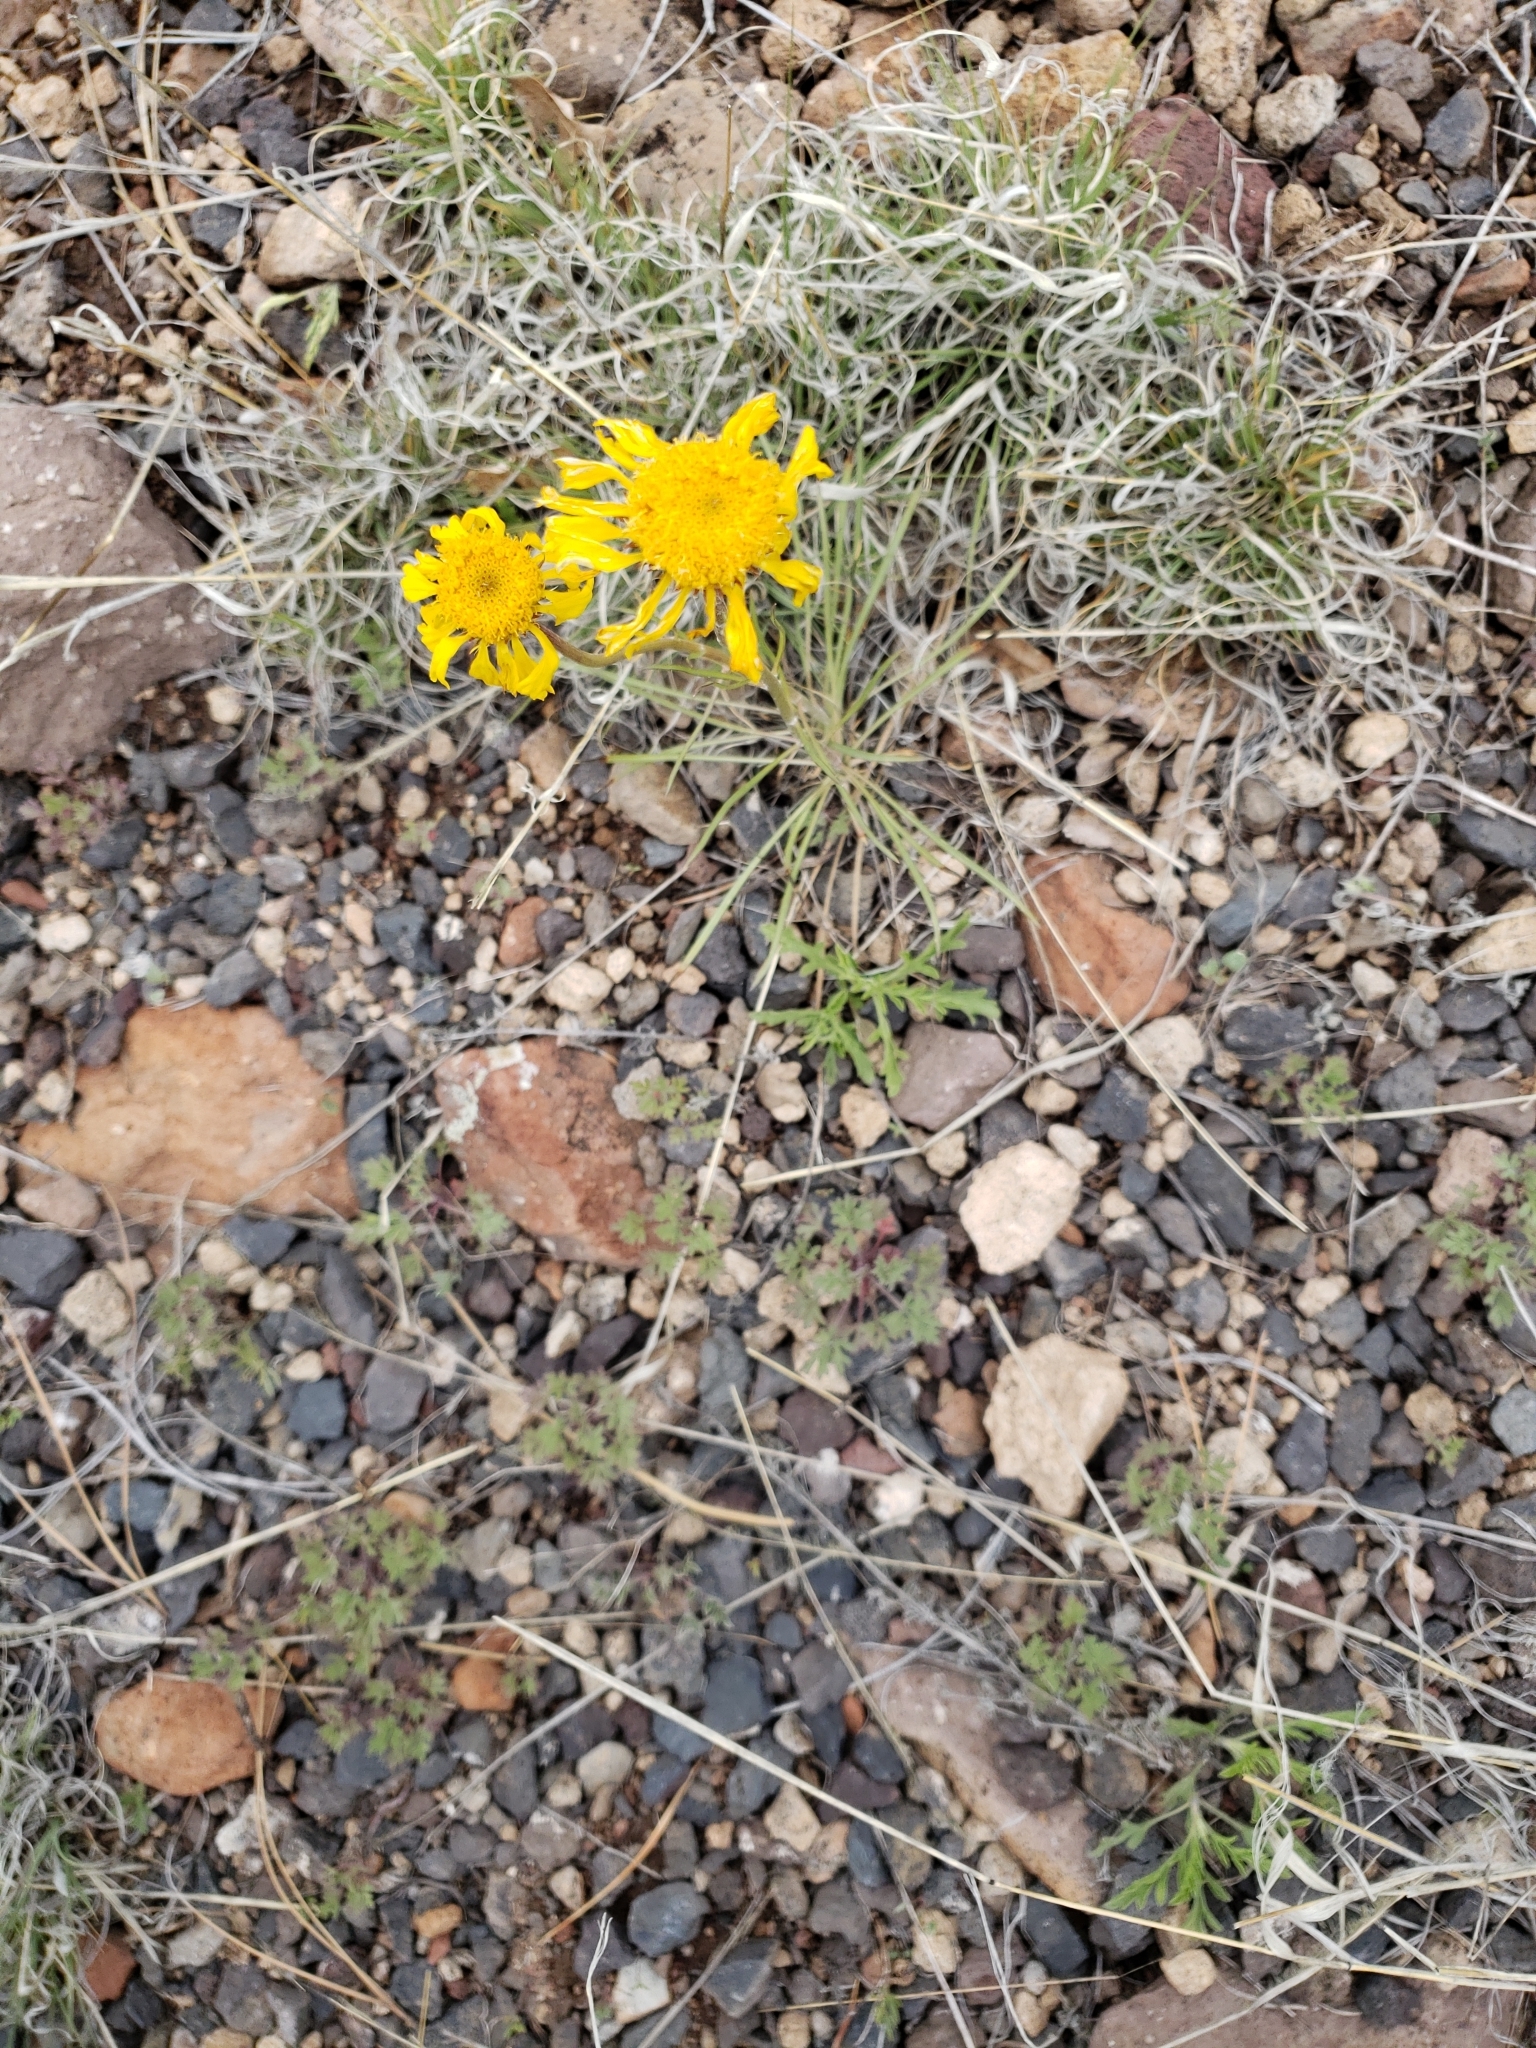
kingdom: Plantae
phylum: Tracheophyta
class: Magnoliopsida
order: Asterales
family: Asteraceae
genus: Hymenoxys
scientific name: Hymenoxys bigelovii
